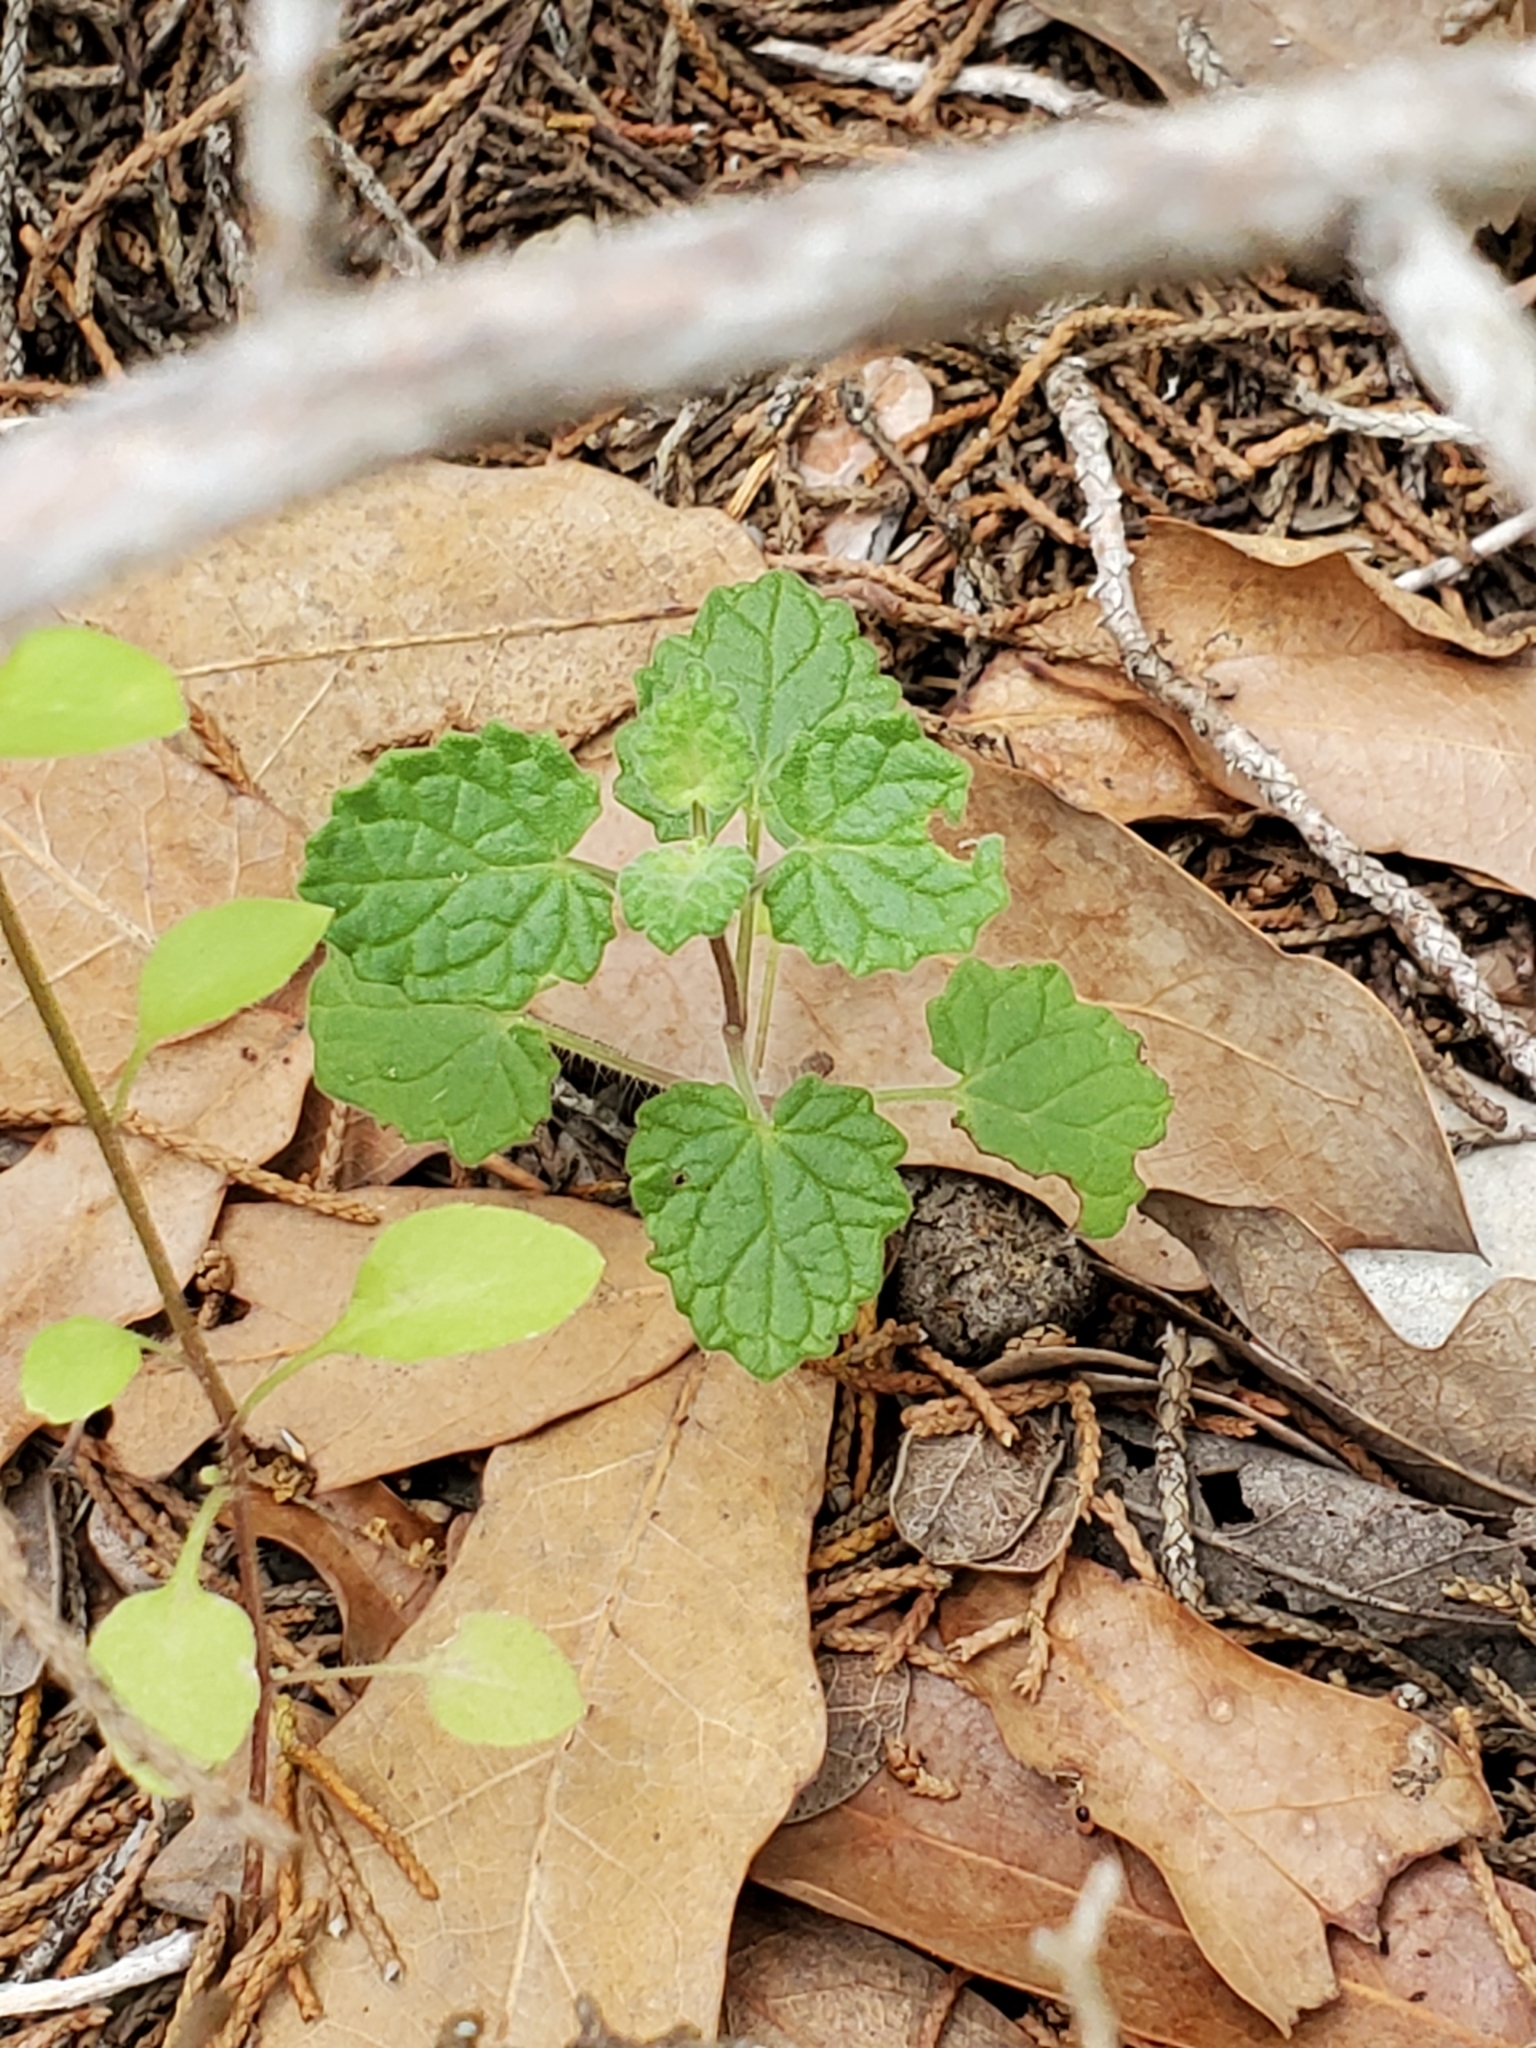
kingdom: Plantae
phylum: Tracheophyta
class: Magnoliopsida
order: Lamiales
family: Lamiaceae
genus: Salvia
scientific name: Salvia roemeriana
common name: Cedar sage
